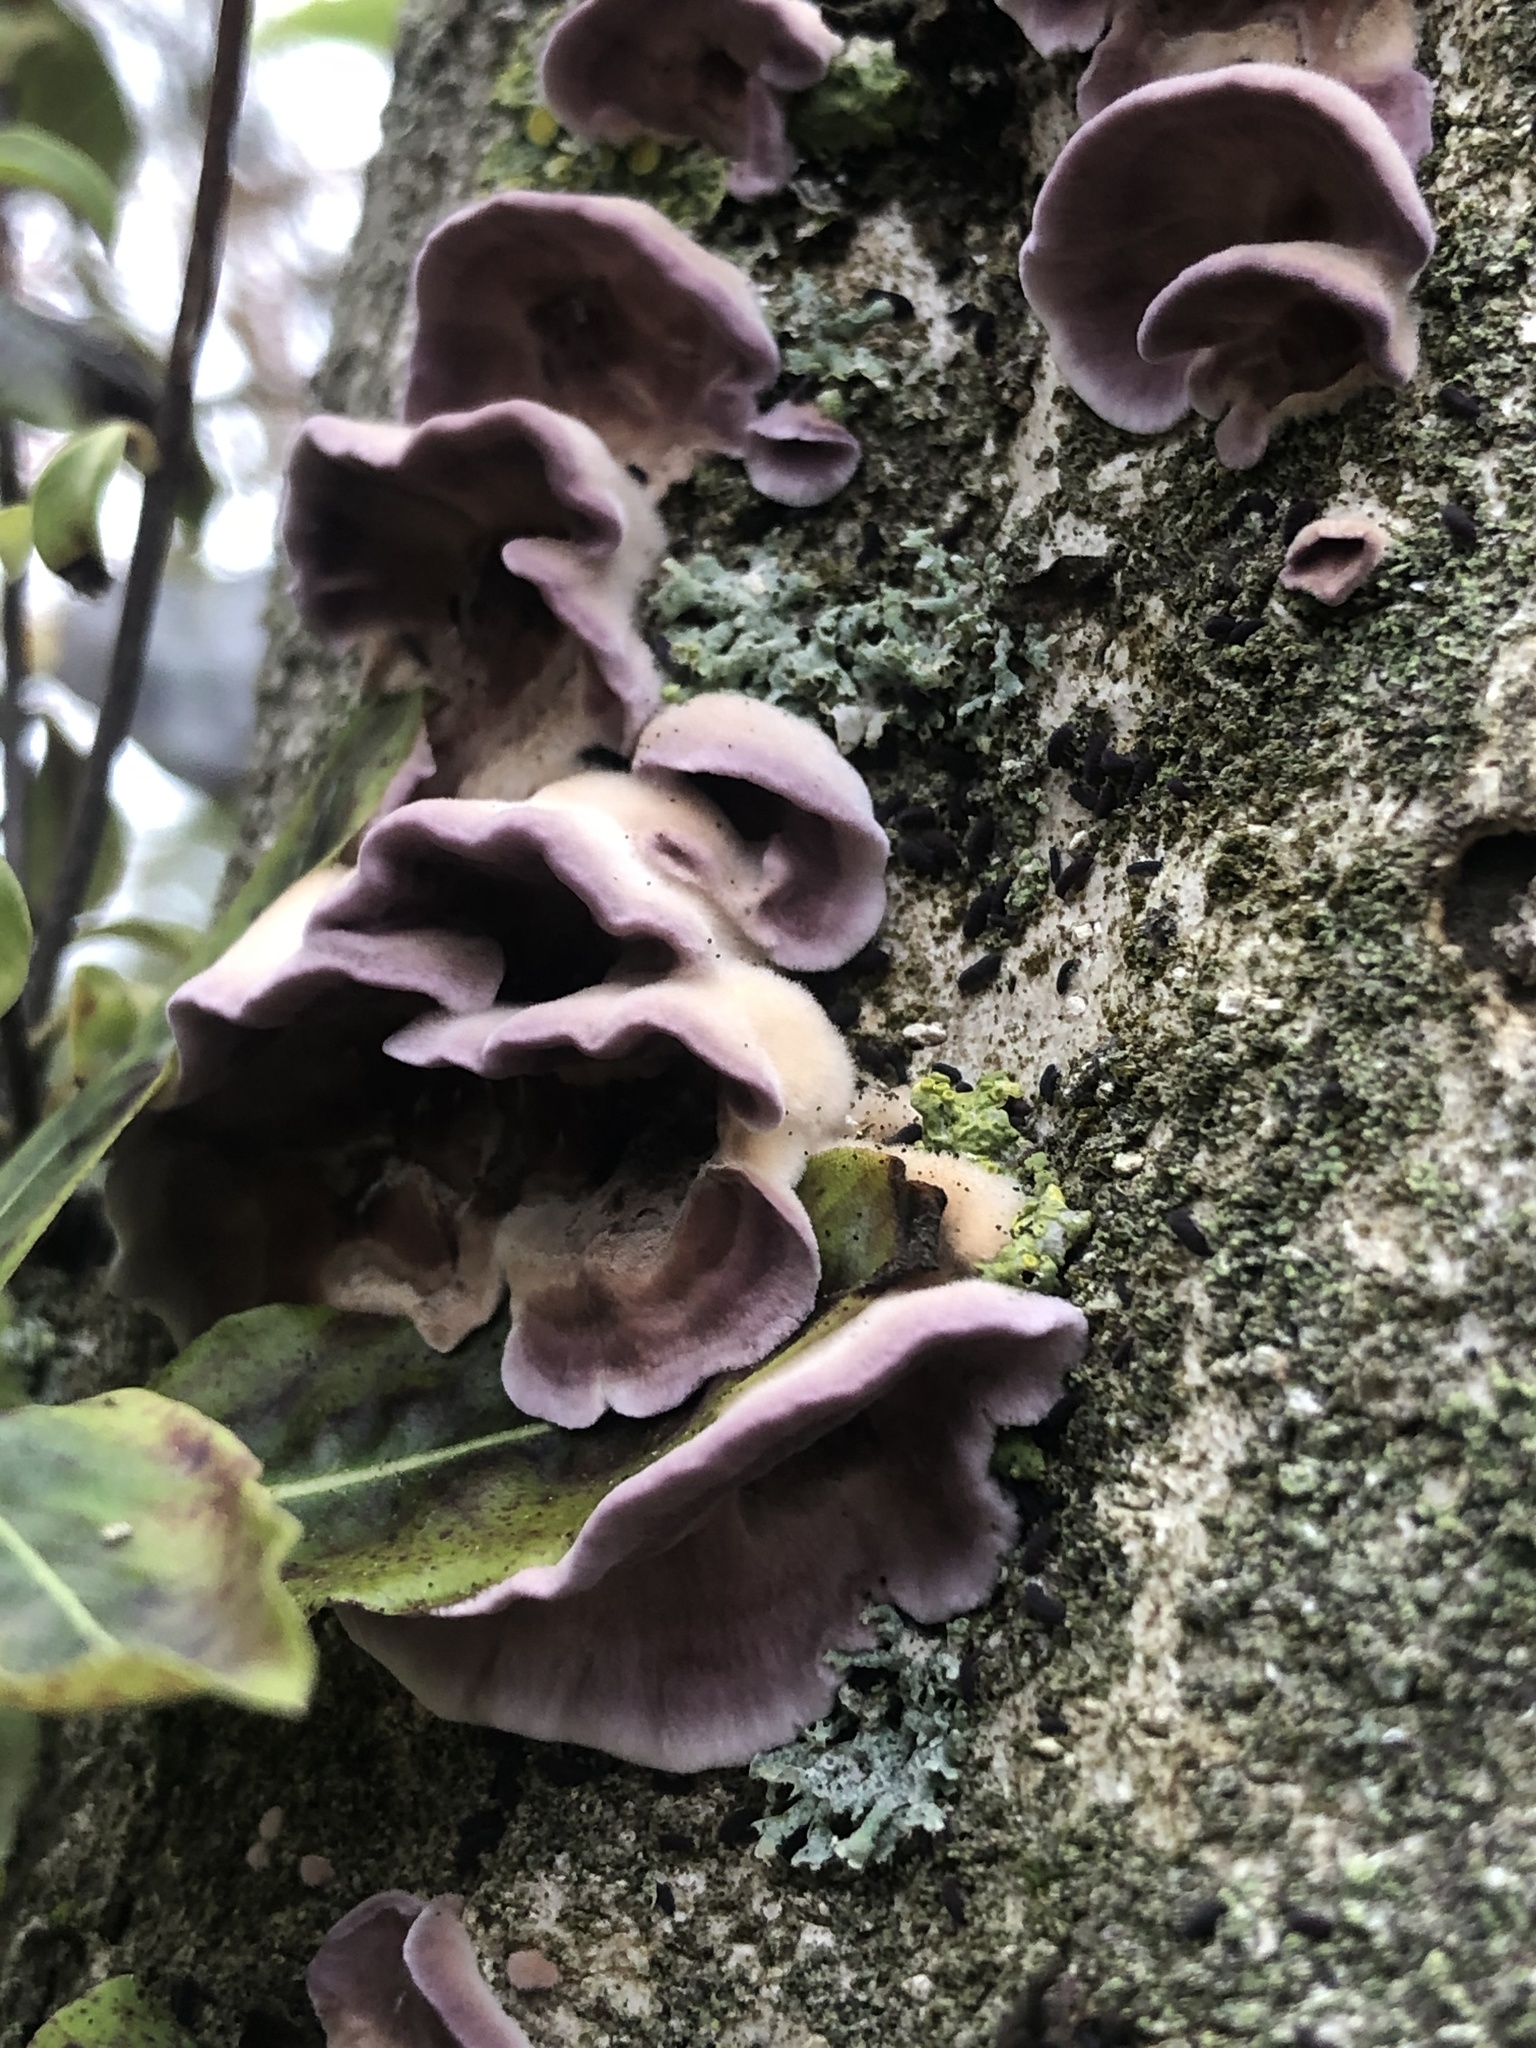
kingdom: Fungi
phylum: Basidiomycota
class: Agaricomycetes
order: Auriculariales
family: Auriculariaceae
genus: Auricularia
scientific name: Auricularia cornea
